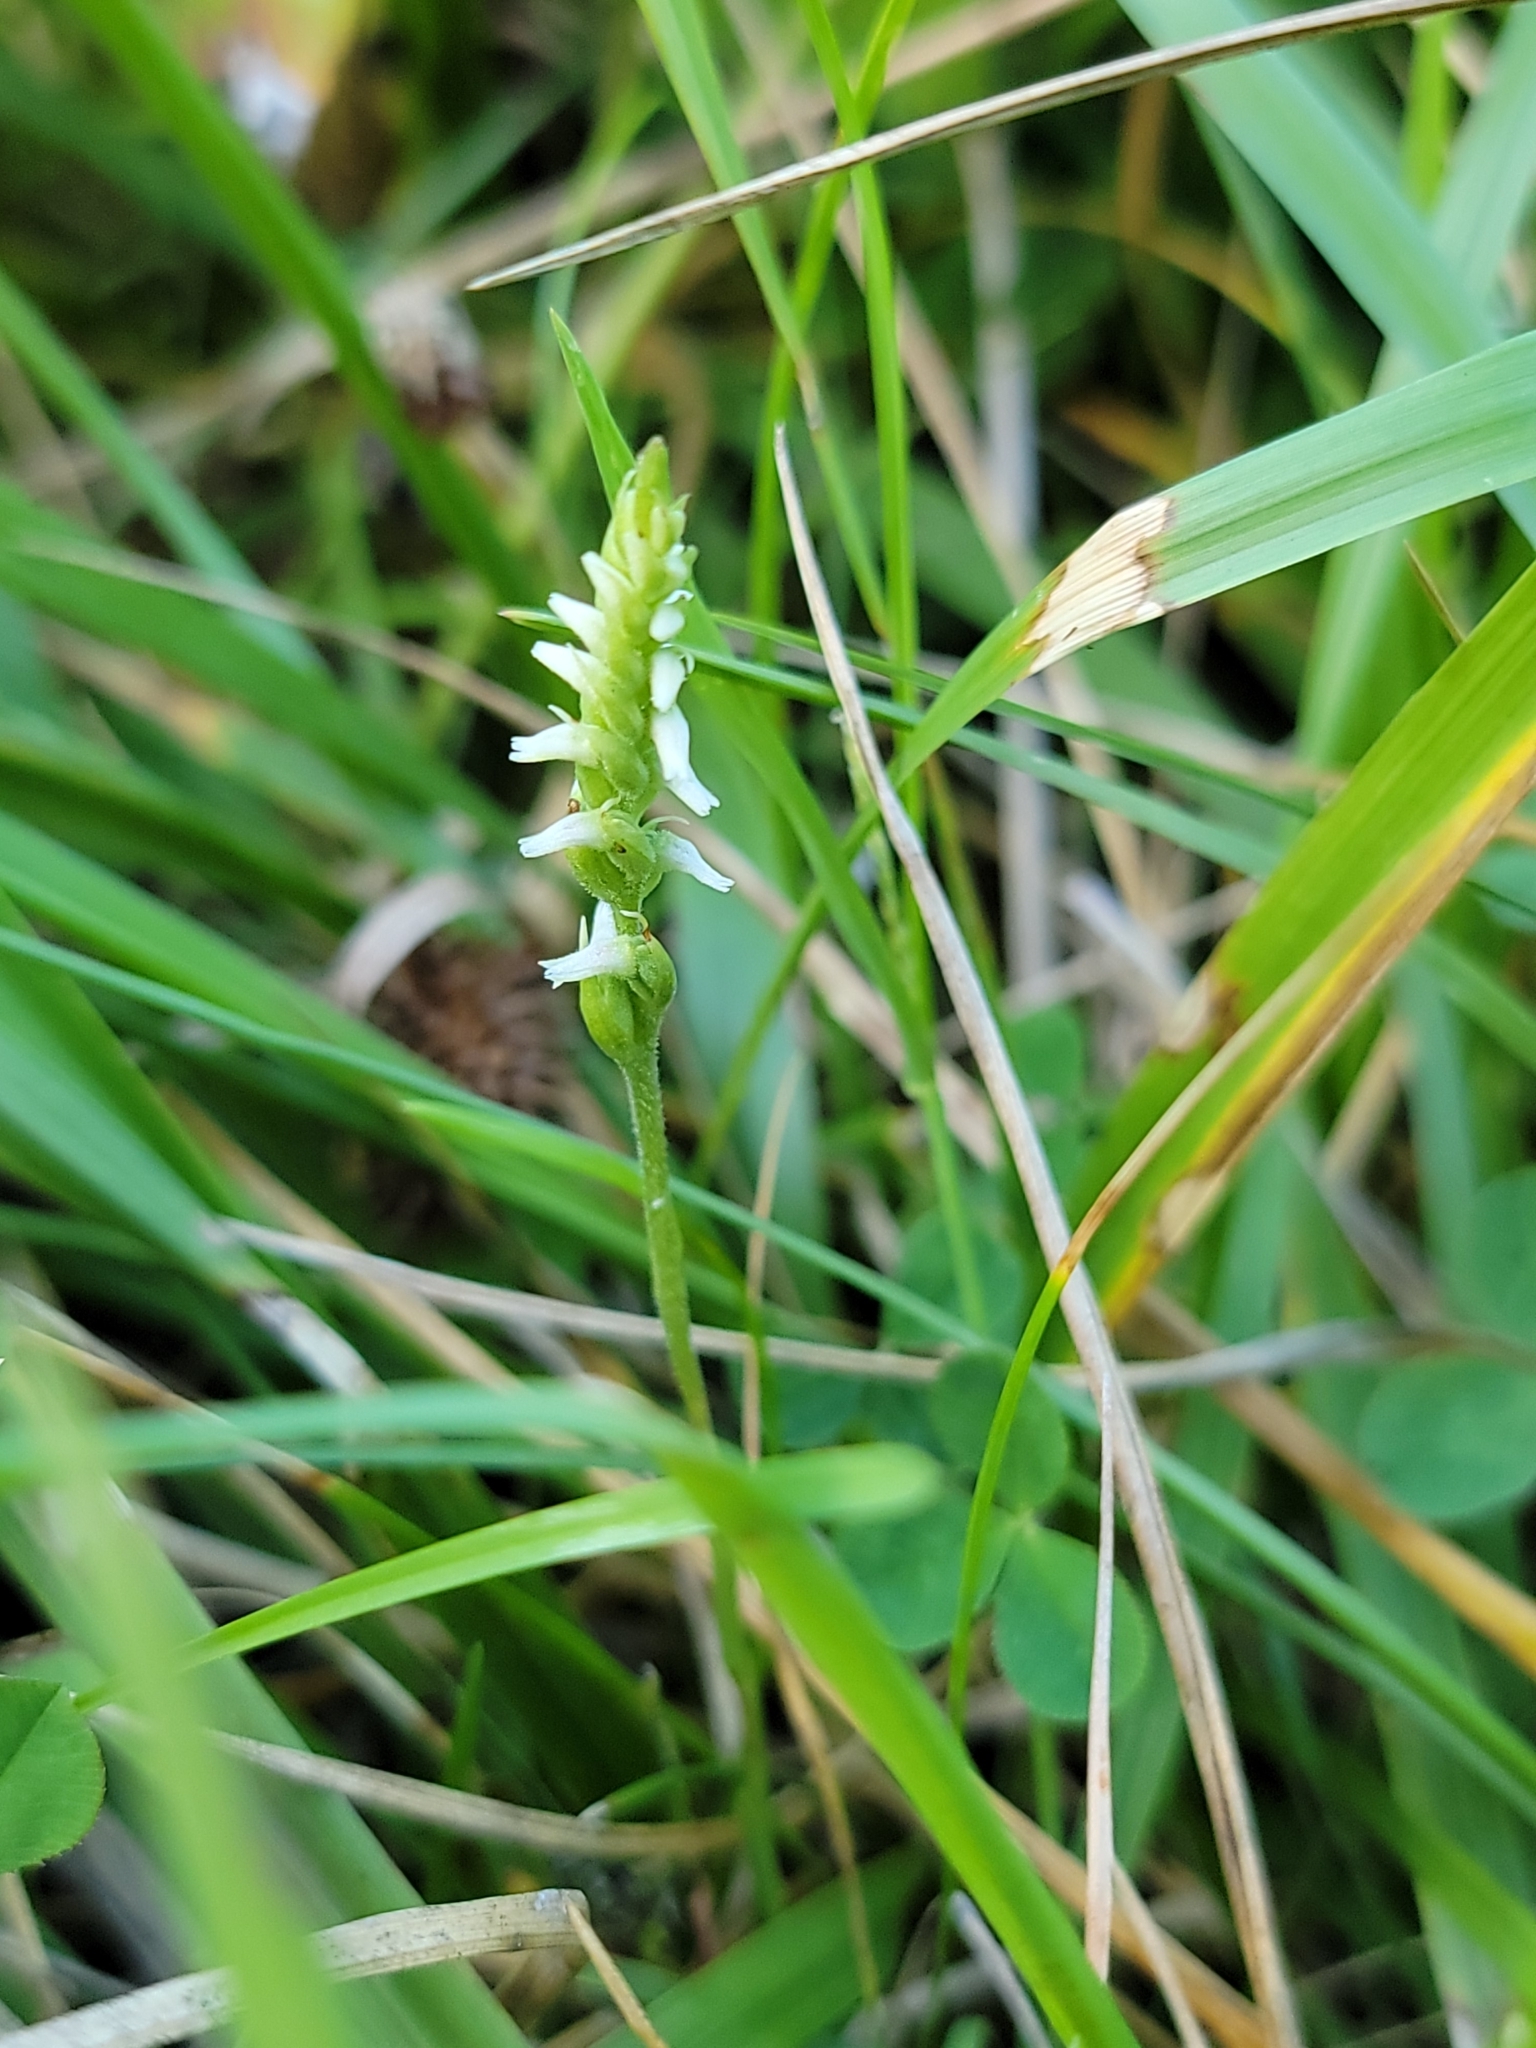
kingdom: Plantae
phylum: Tracheophyta
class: Liliopsida
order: Asparagales
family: Orchidaceae
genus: Spiranthes
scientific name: Spiranthes ovalis
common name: October ladies'-tresses
